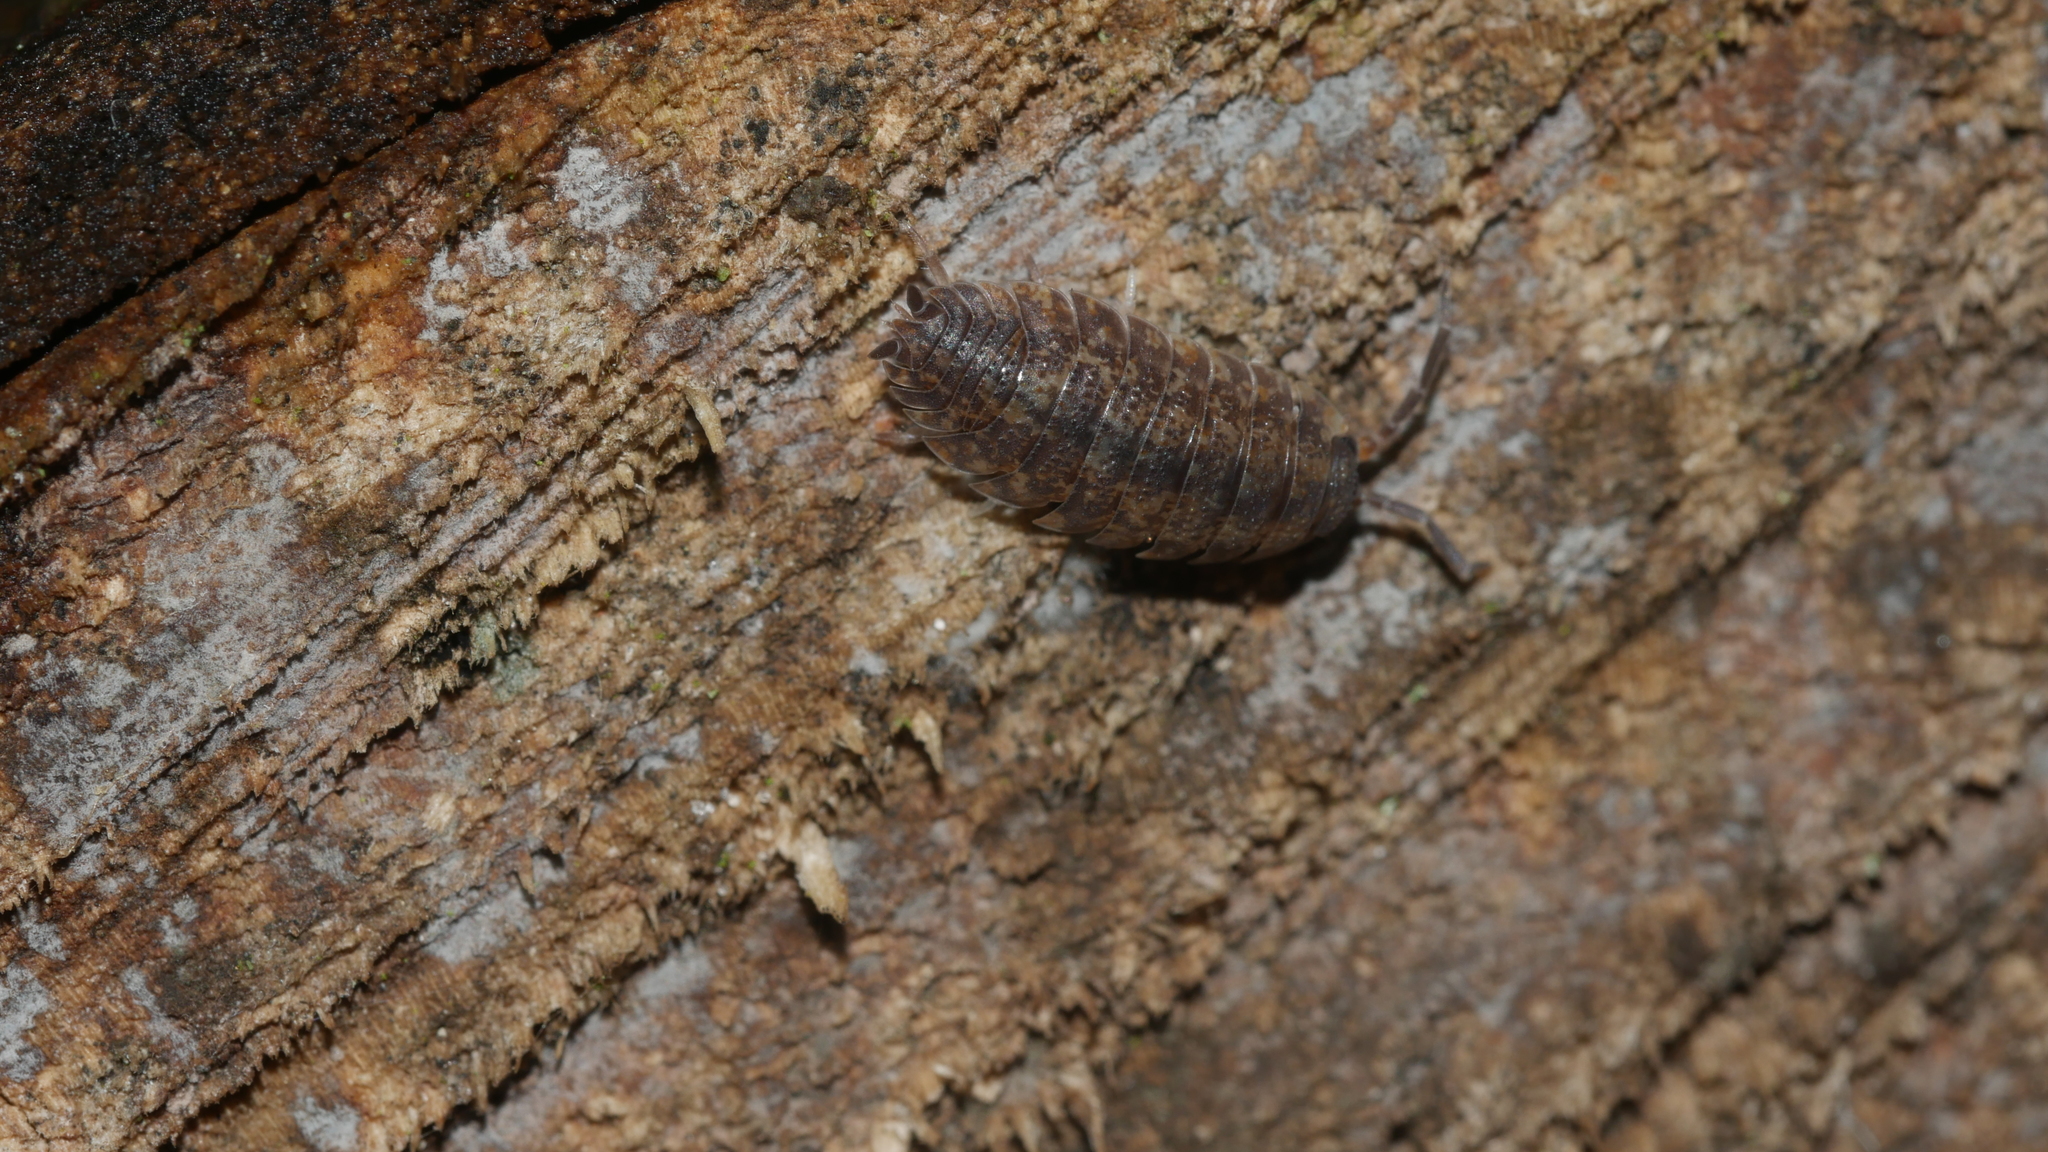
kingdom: Animalia
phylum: Arthropoda
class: Malacostraca
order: Isopoda
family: Porcellionidae
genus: Porcellio
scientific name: Porcellio scaber
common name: Common rough woodlouse
